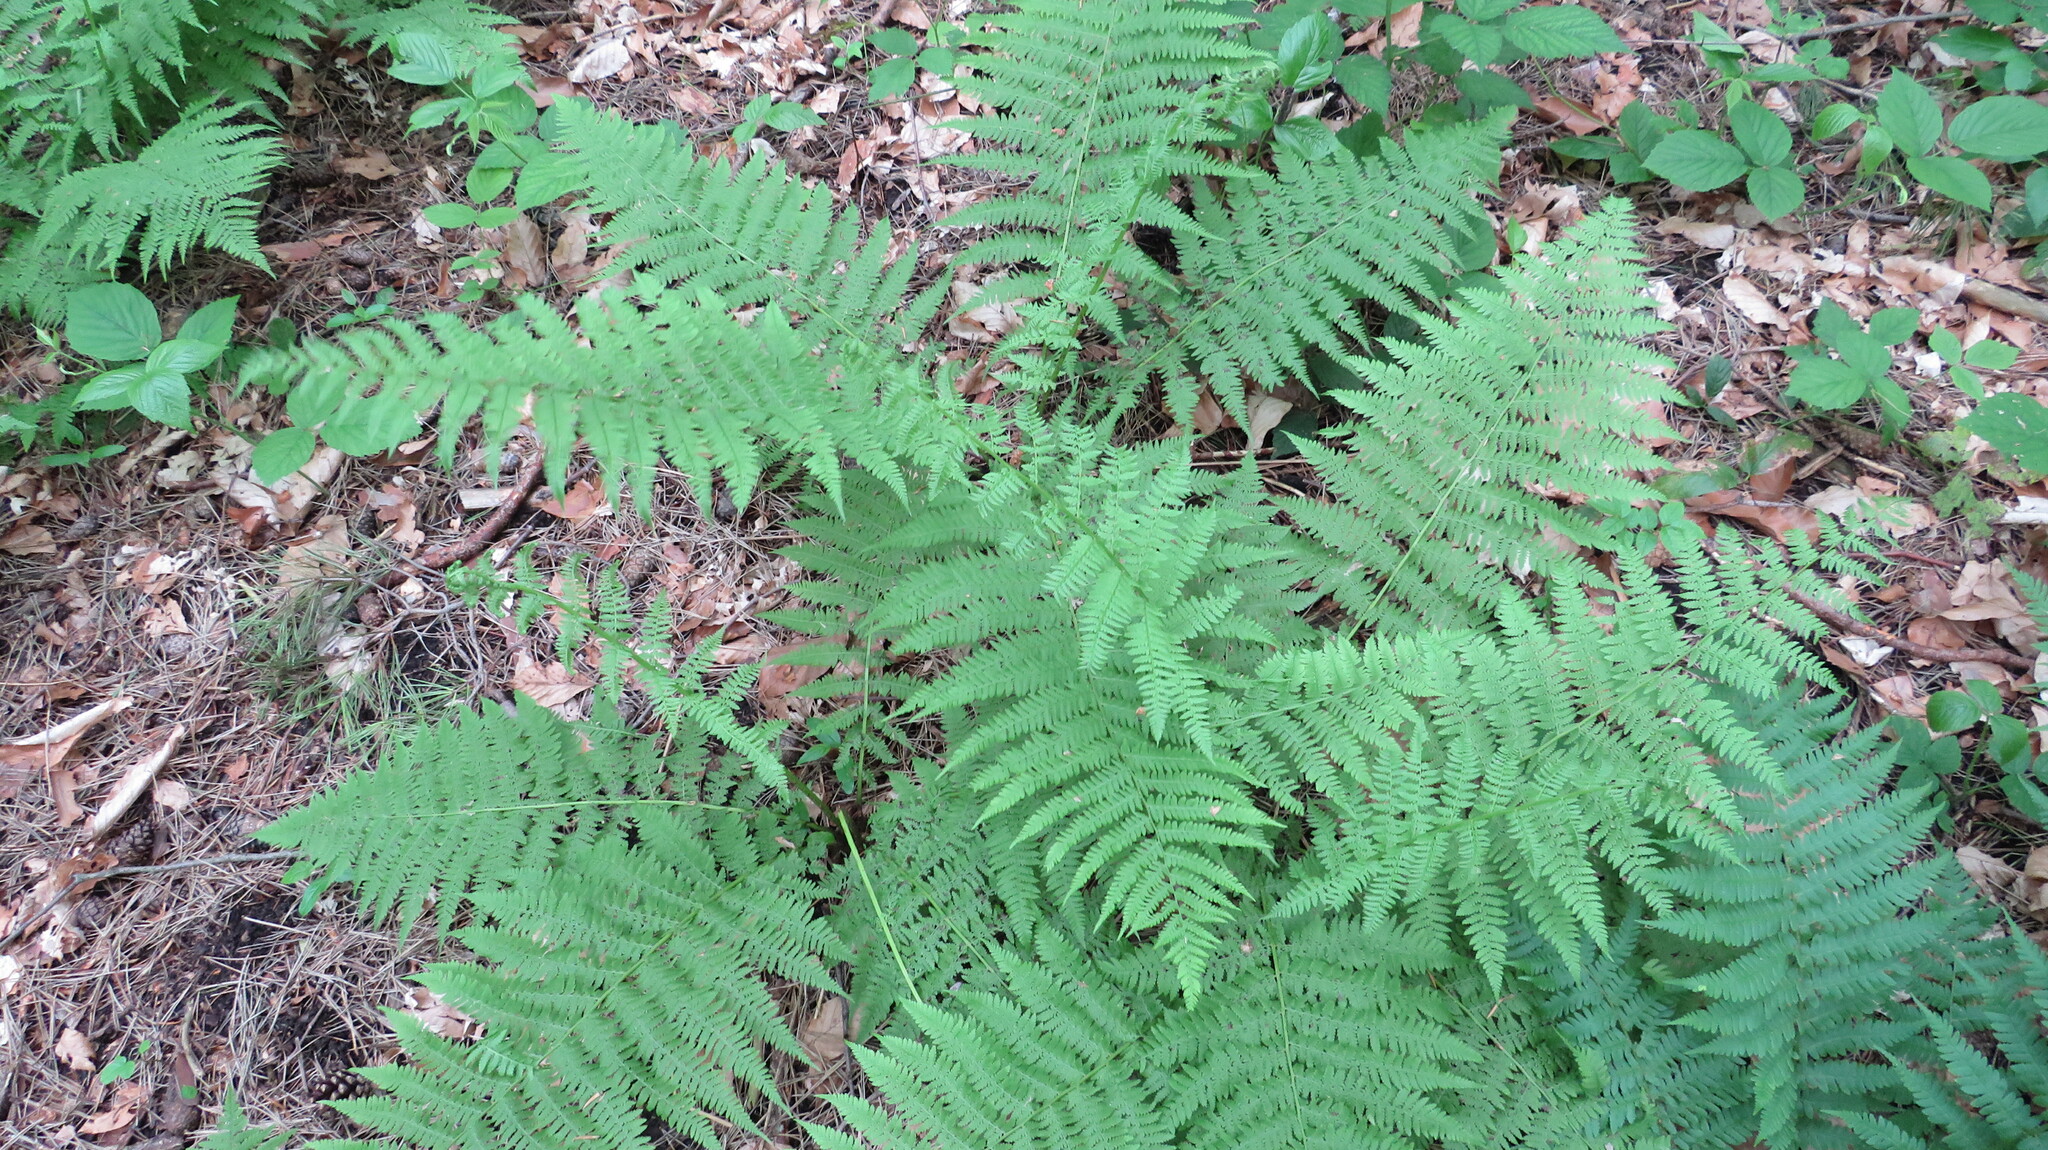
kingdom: Plantae
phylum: Tracheophyta
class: Polypodiopsida
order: Polypodiales
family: Athyriaceae
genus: Athyrium
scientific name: Athyrium filix-femina
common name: Lady fern
